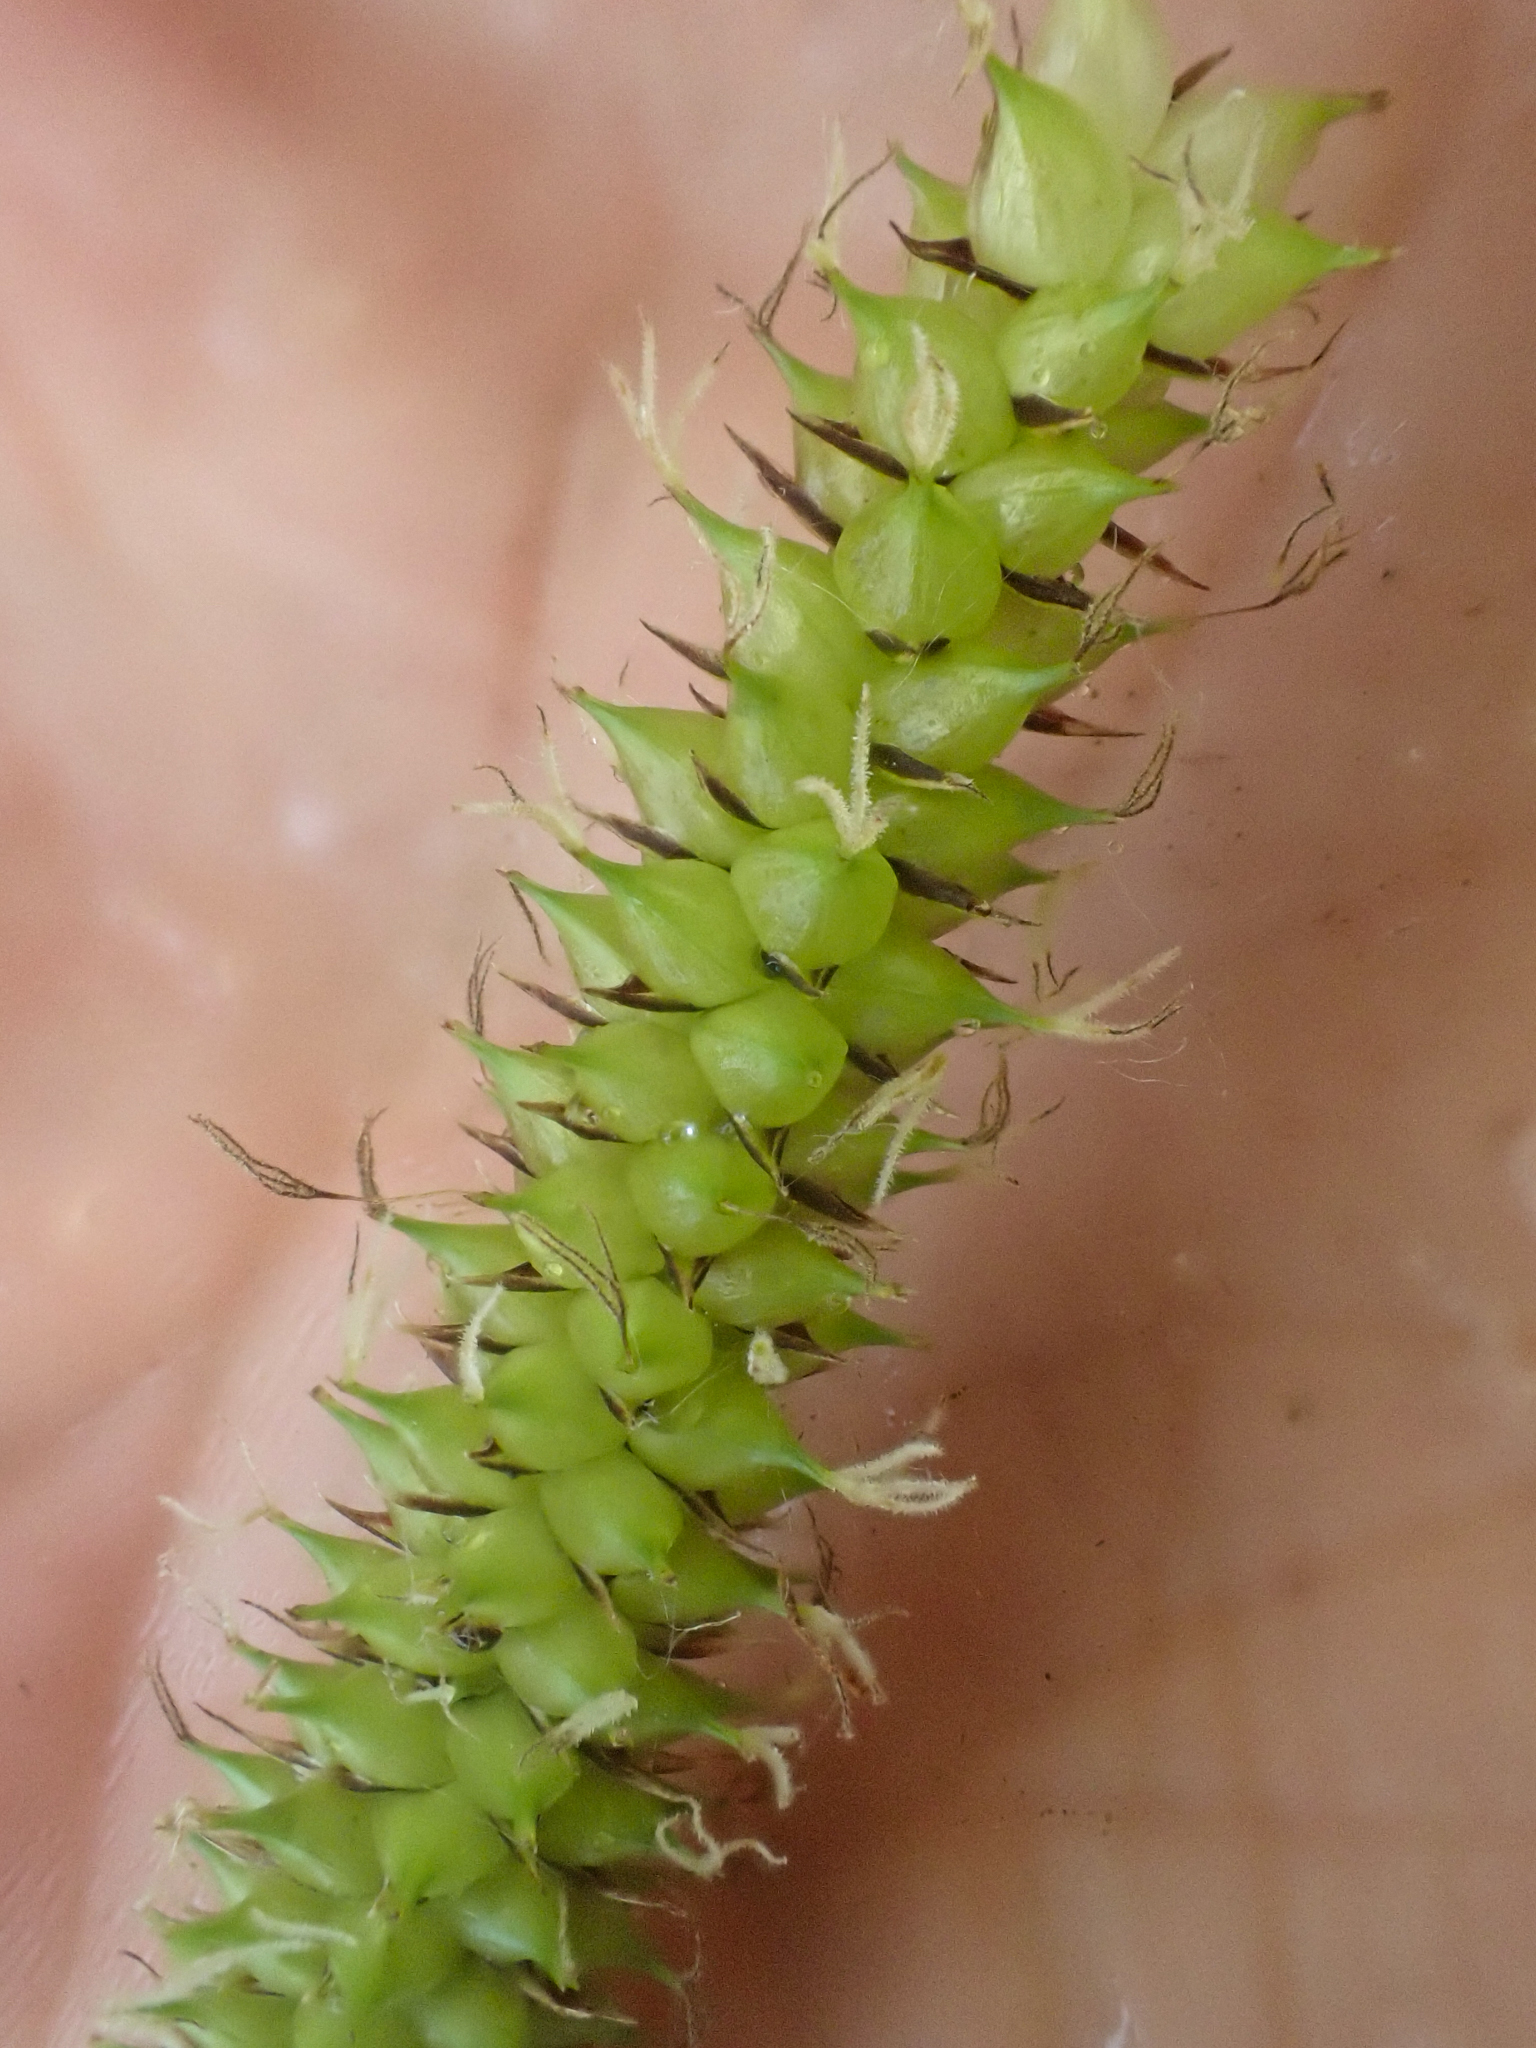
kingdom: Plantae
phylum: Tracheophyta
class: Liliopsida
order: Poales
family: Cyperaceae
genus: Carex
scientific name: Carex utriculata
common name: Beaked sedge
